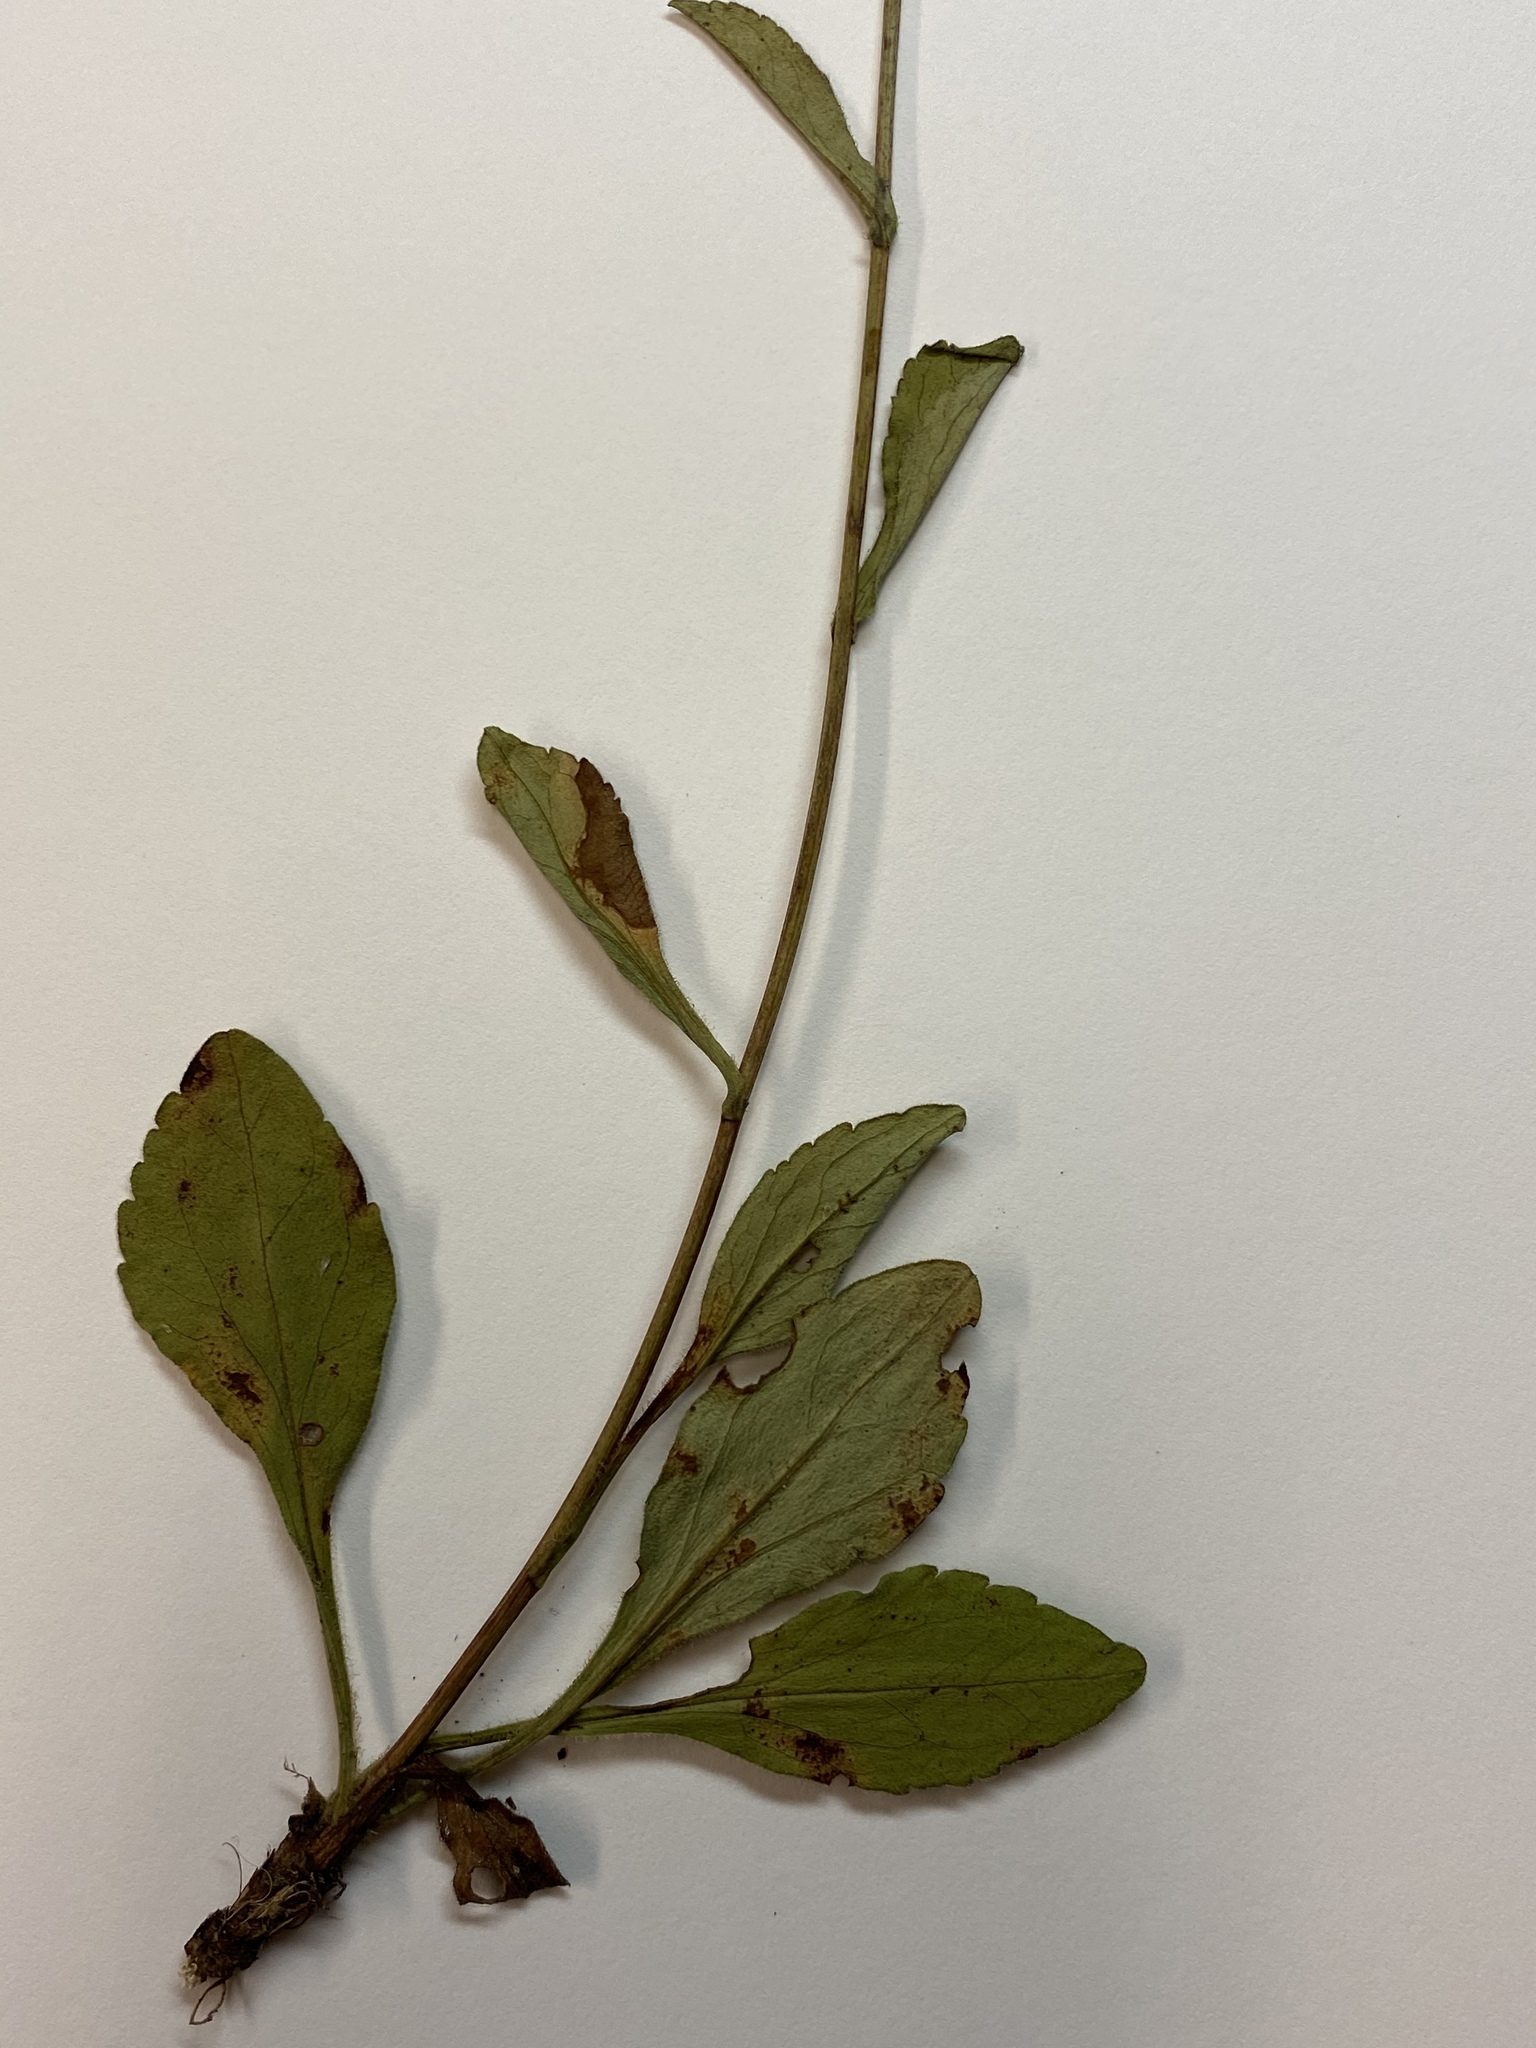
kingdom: Plantae
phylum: Tracheophyta
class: Magnoliopsida
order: Asterales
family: Asteraceae
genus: Sericocarpus
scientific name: Sericocarpus asteroides
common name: Toothed white-top aster
